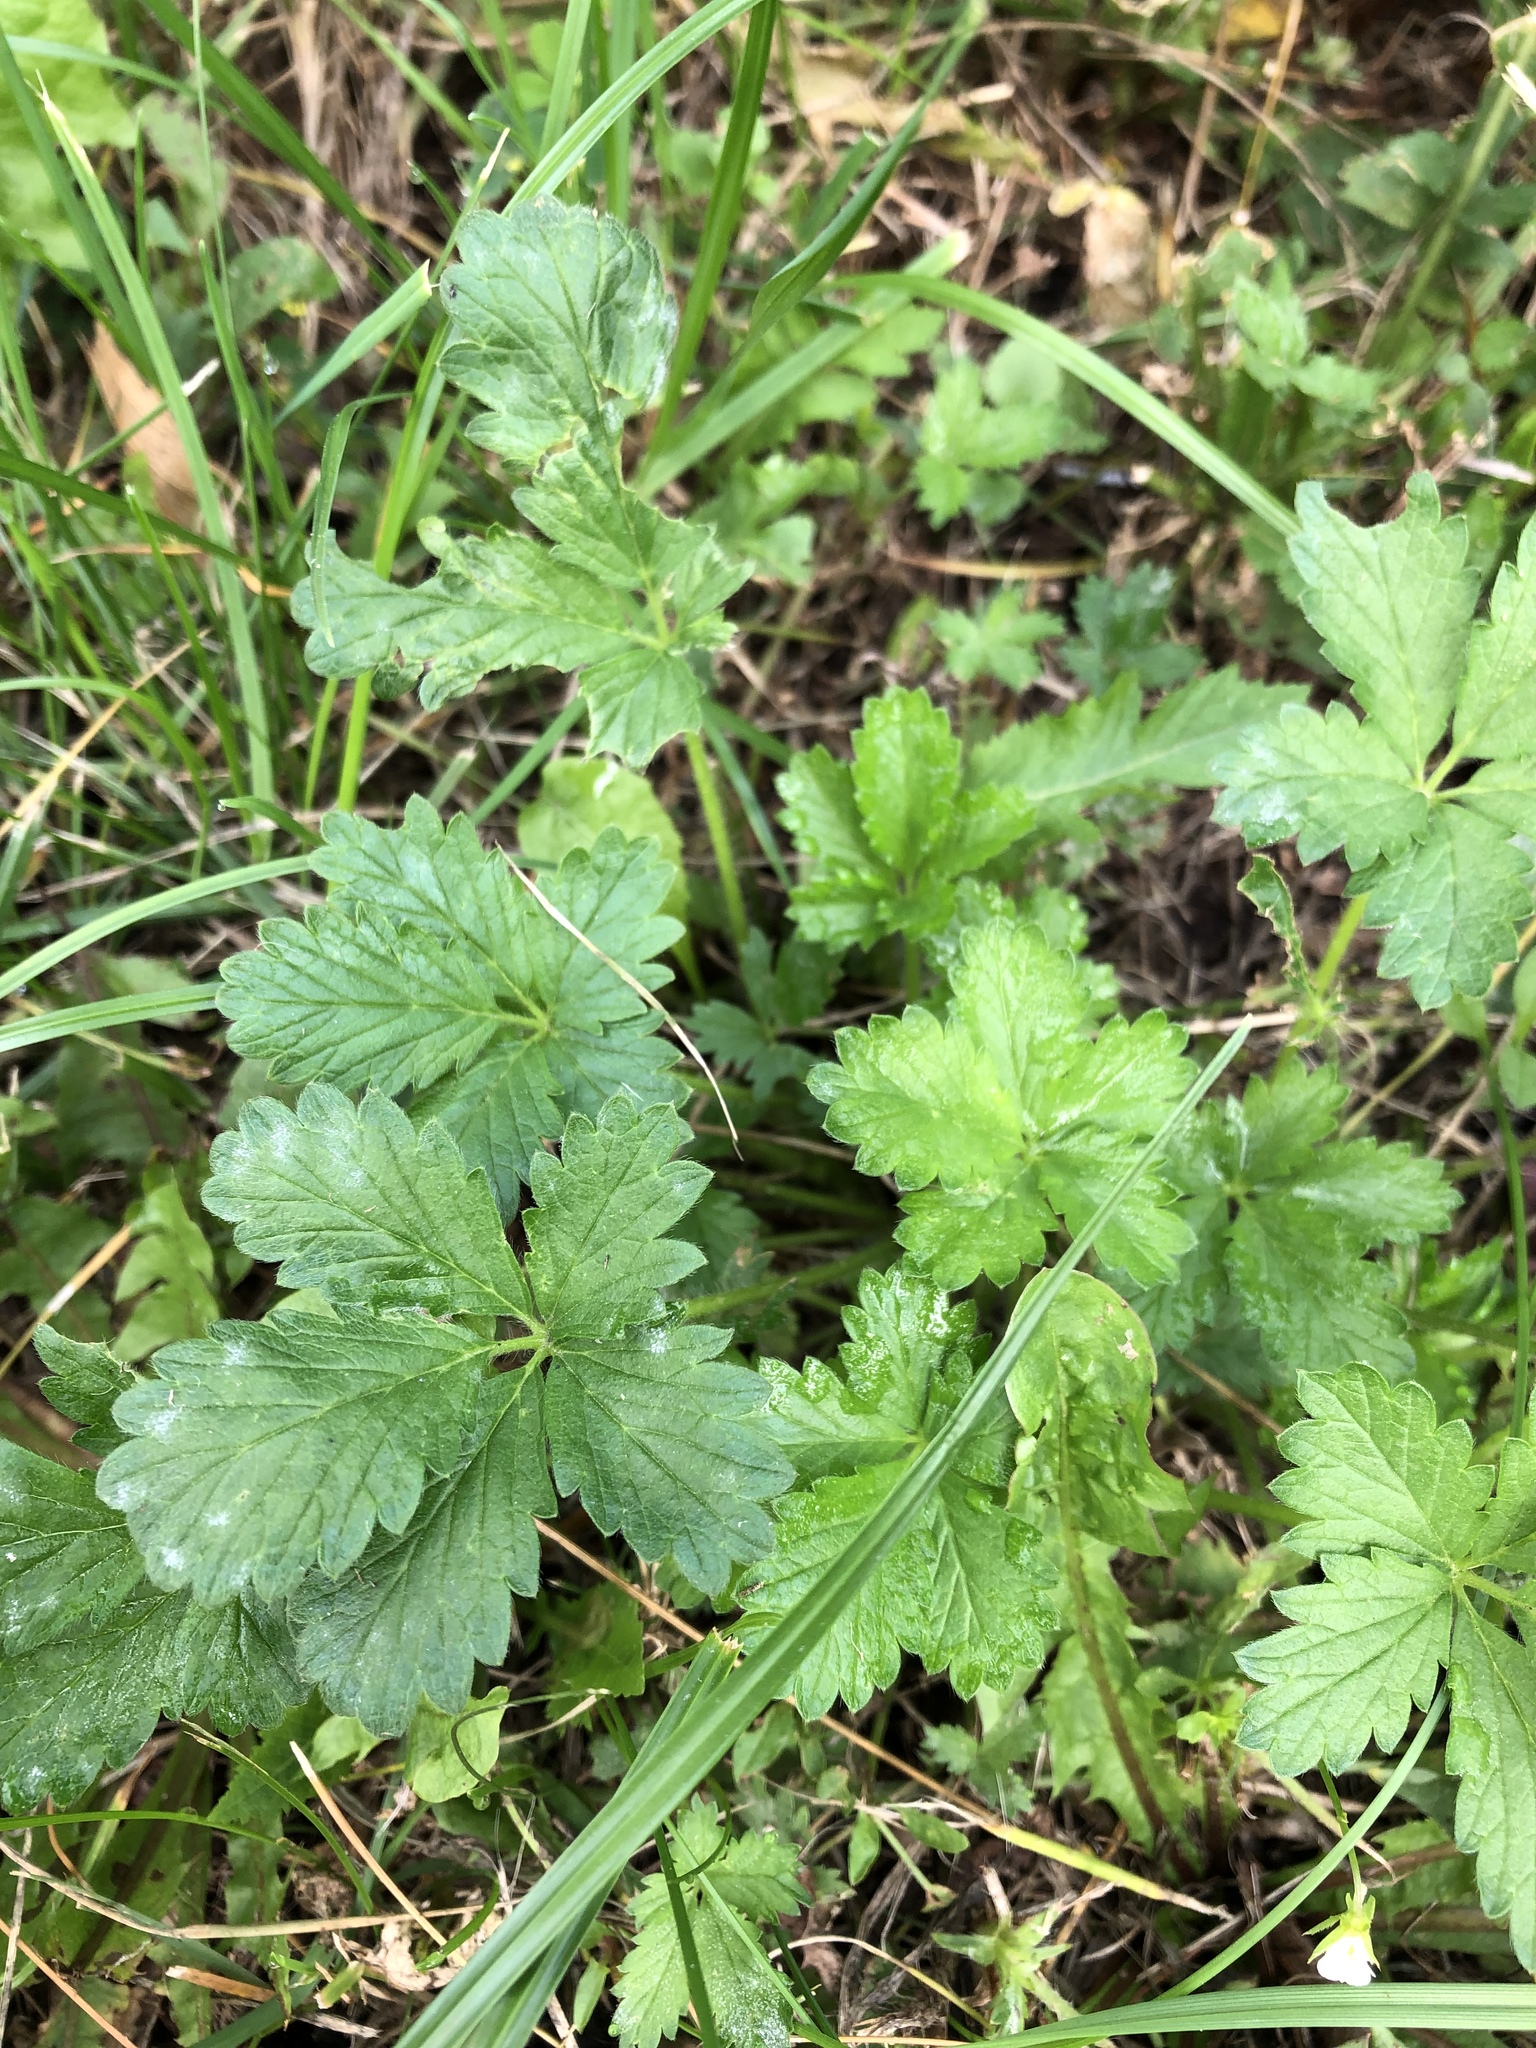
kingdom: Plantae
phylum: Tracheophyta
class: Magnoliopsida
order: Rosales
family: Rosaceae
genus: Potentilla
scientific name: Potentilla intermedia
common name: Downy cinquefoil
